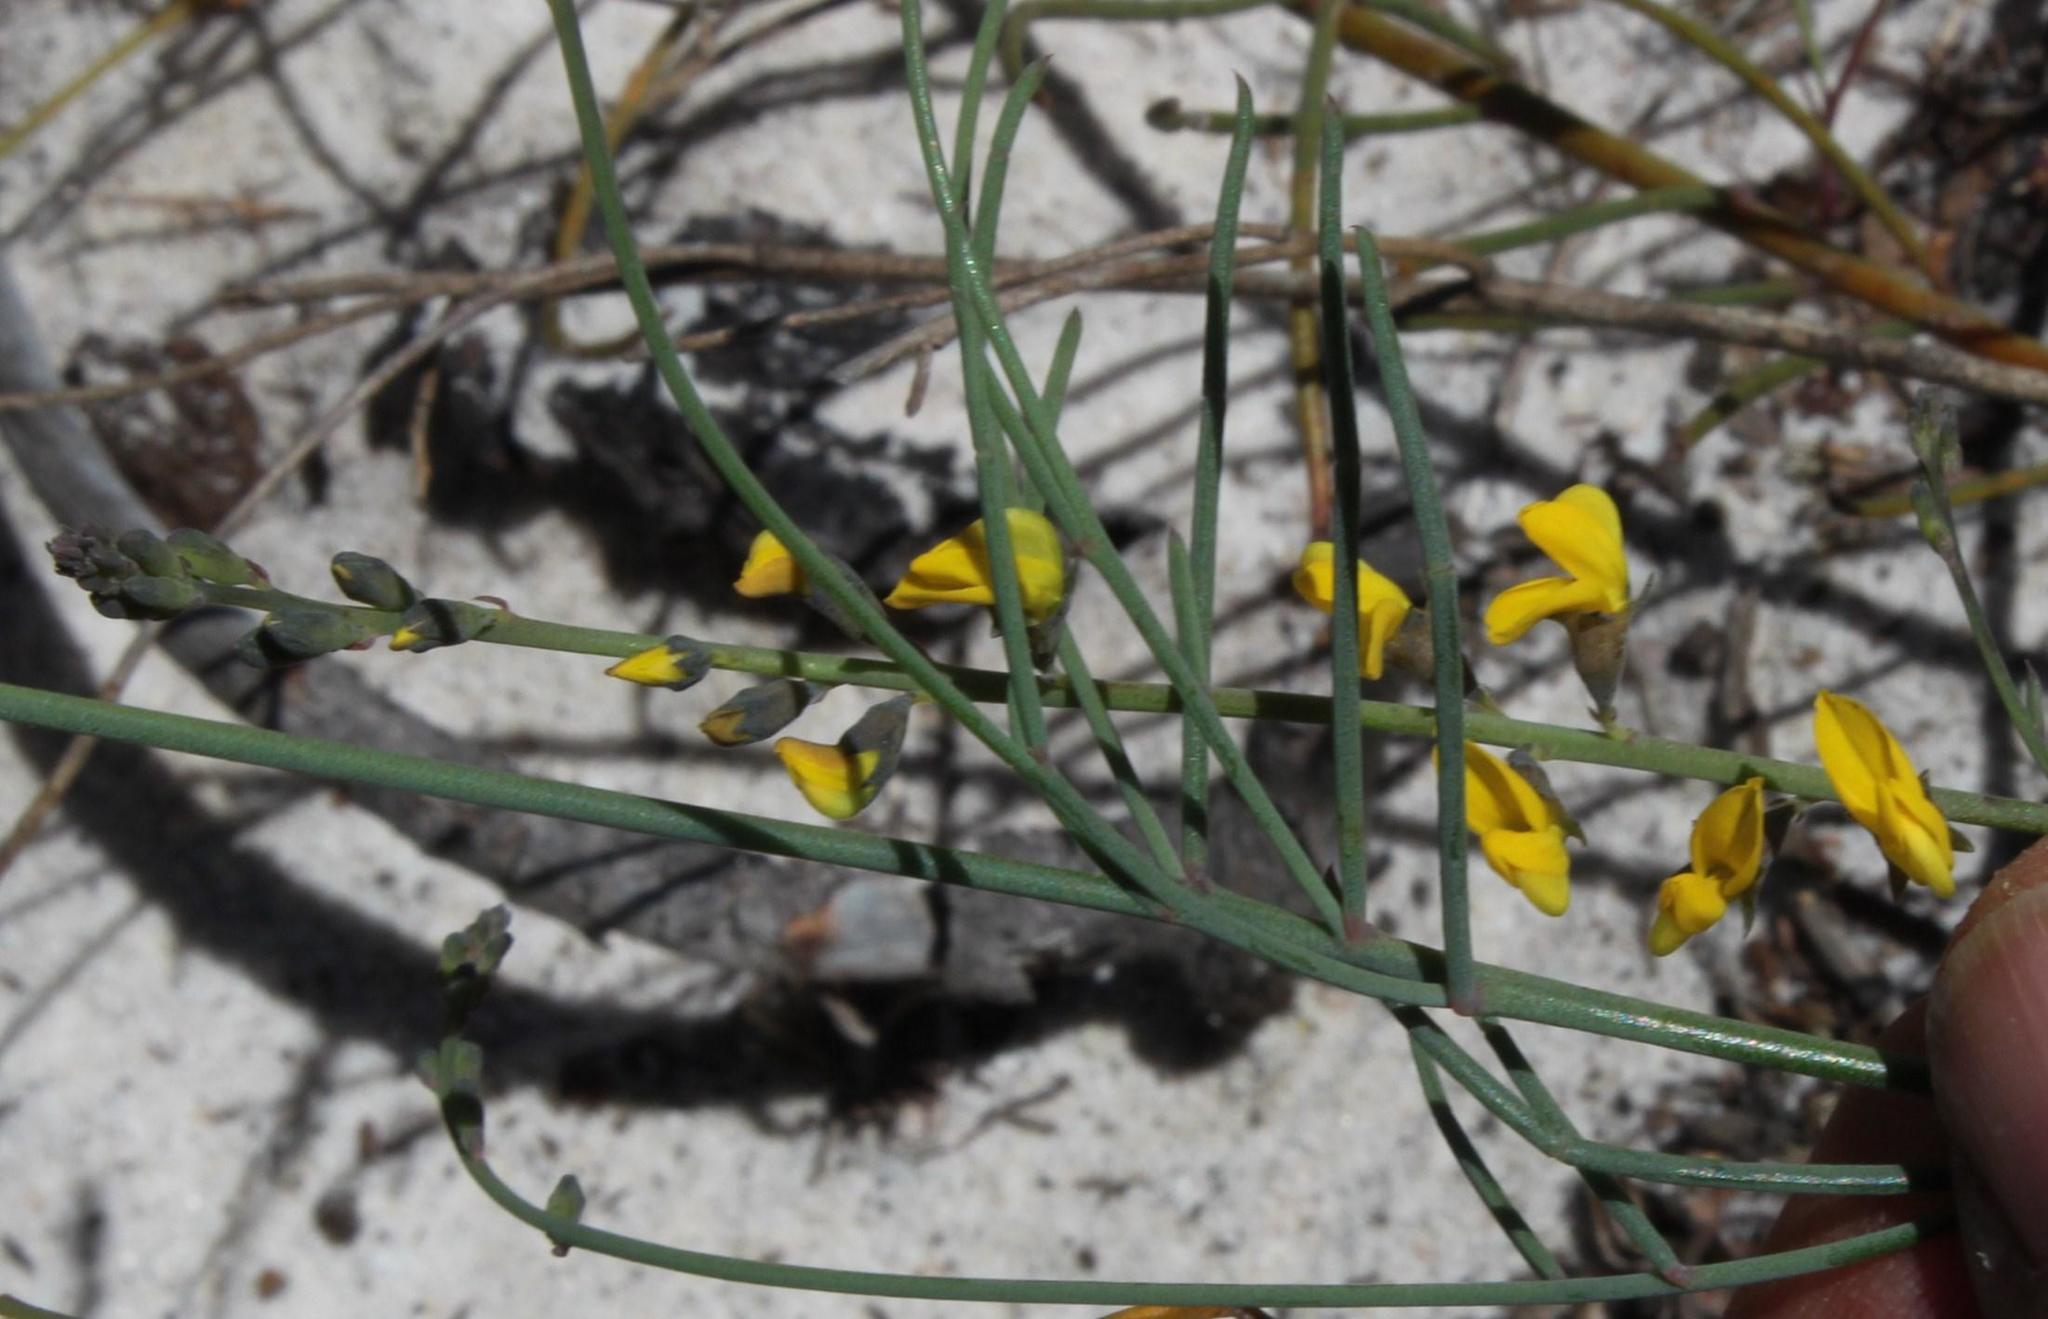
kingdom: Plantae
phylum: Tracheophyta
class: Magnoliopsida
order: Fabales
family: Fabaceae
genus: Lebeckia
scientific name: Lebeckia contaminata
